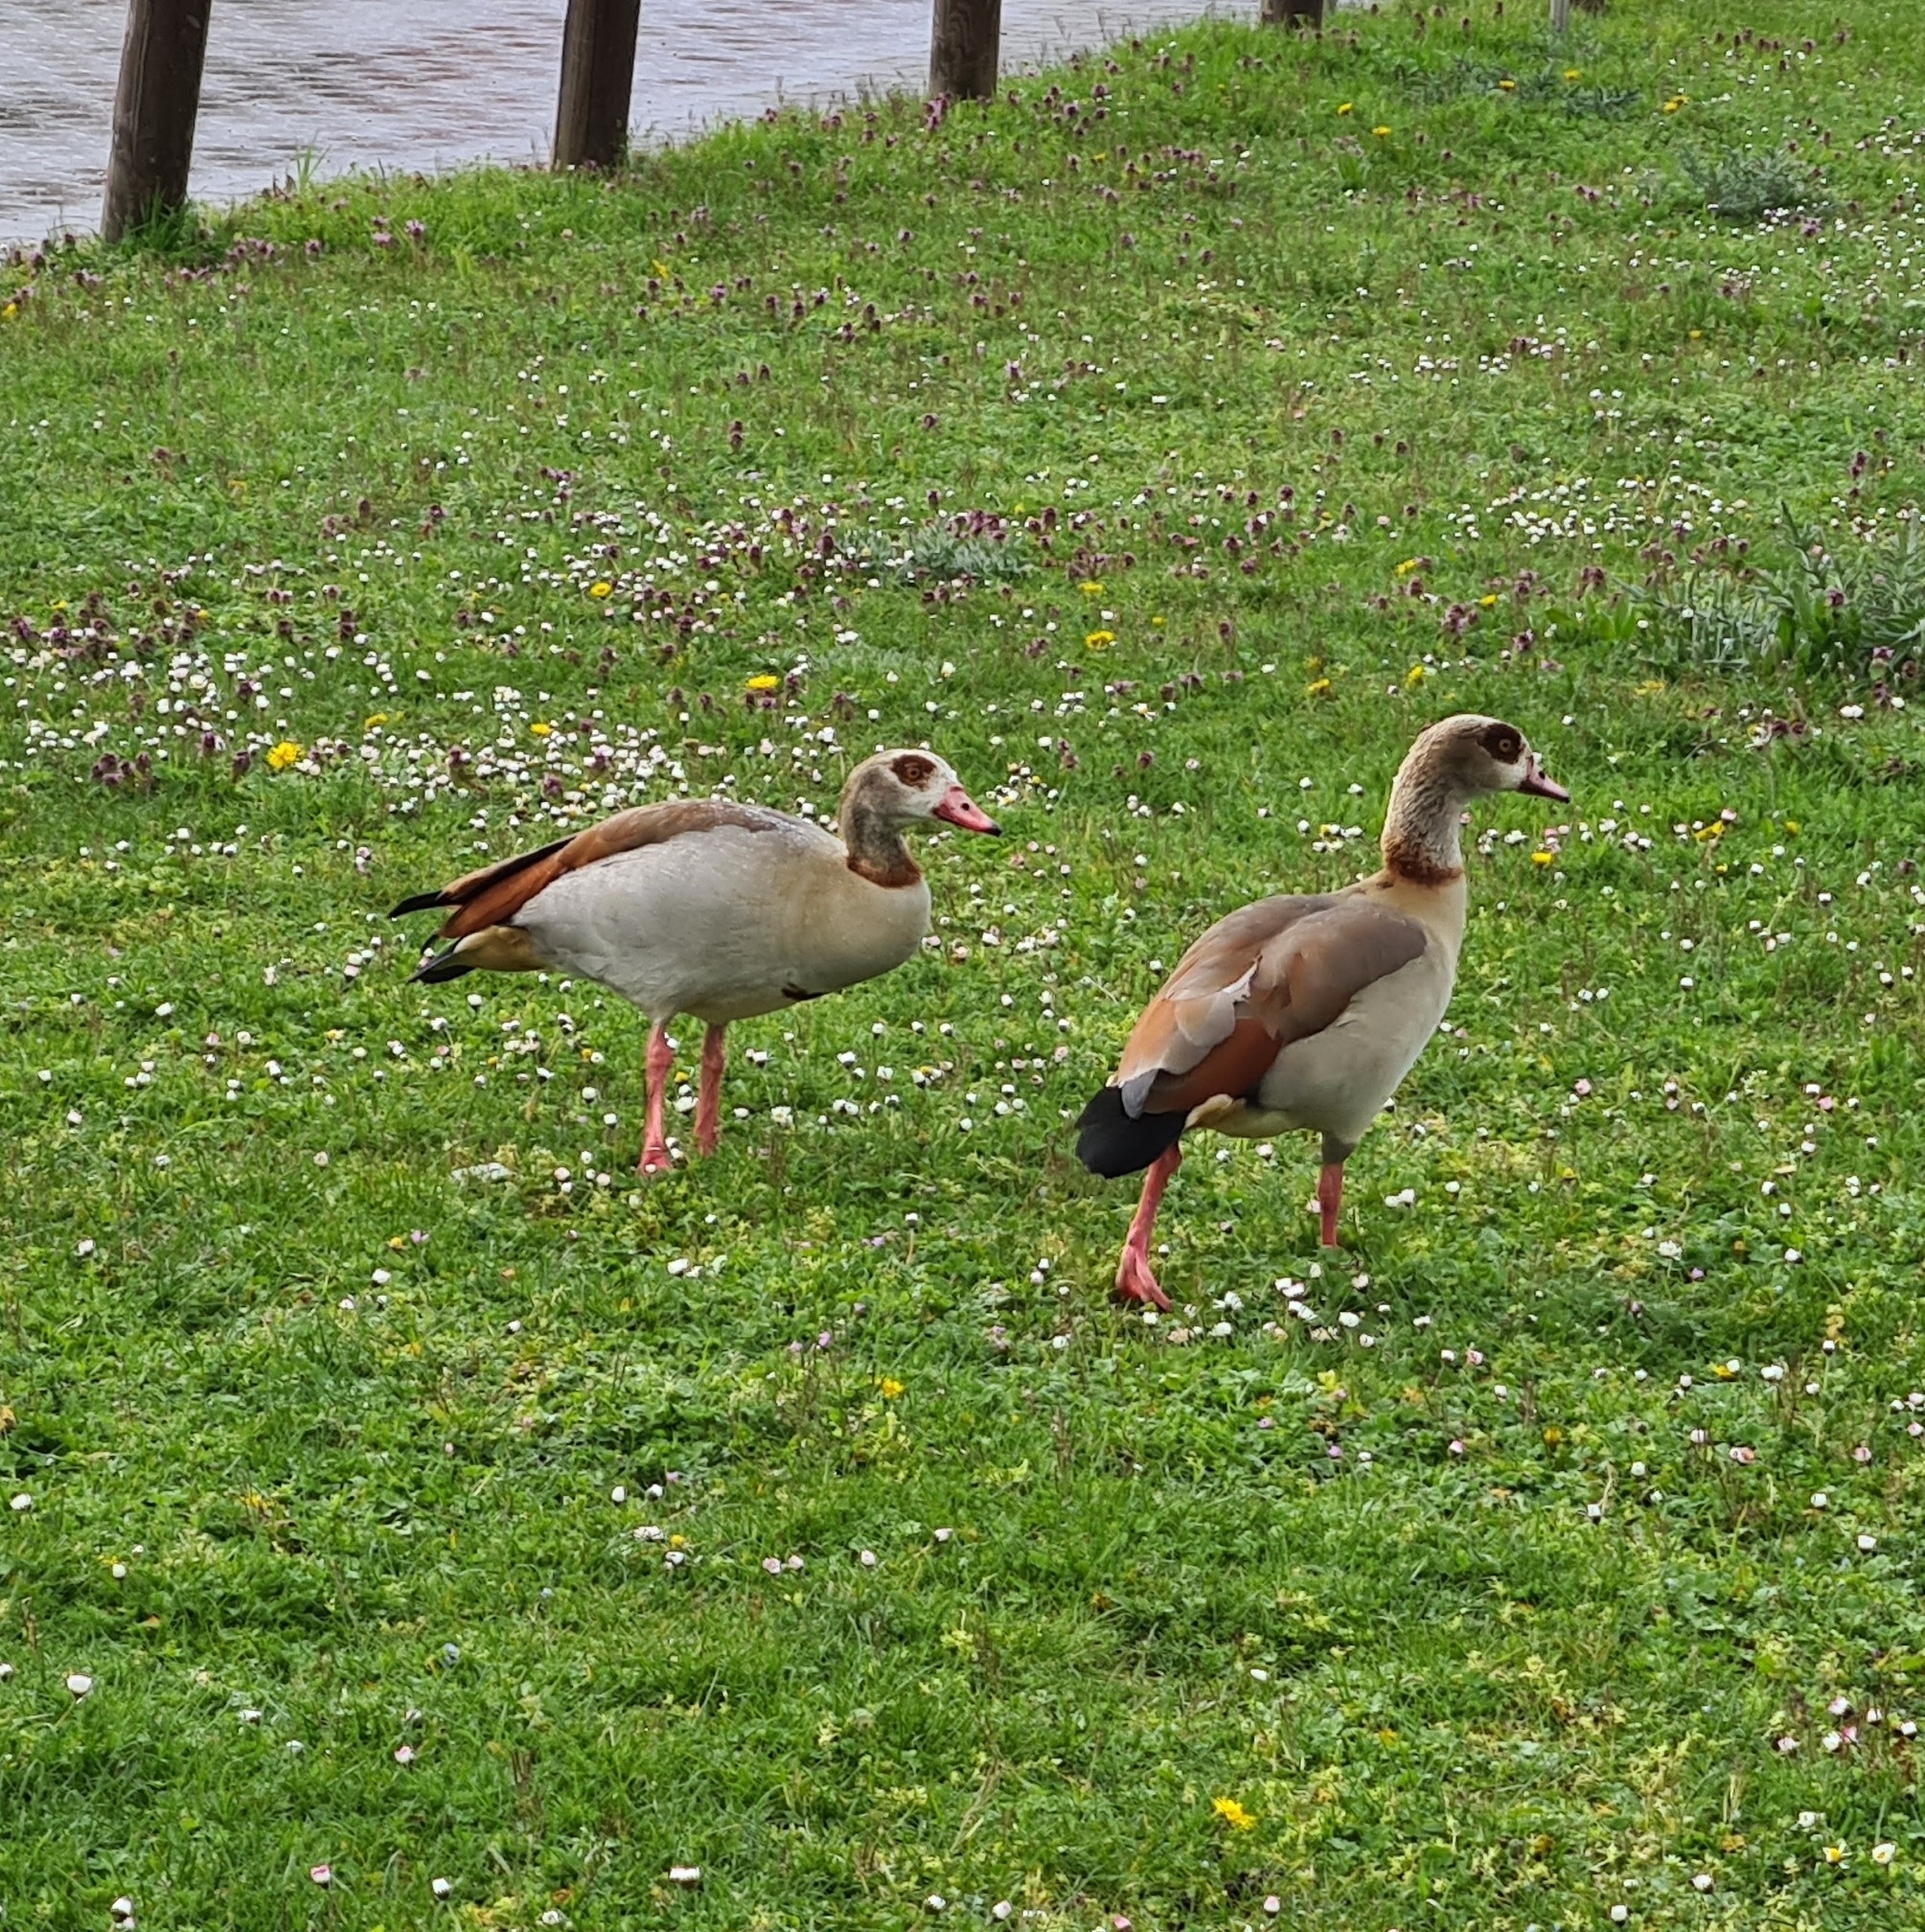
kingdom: Animalia
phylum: Chordata
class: Aves
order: Anseriformes
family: Anatidae
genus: Alopochen
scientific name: Alopochen aegyptiaca
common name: Egyptian goose
